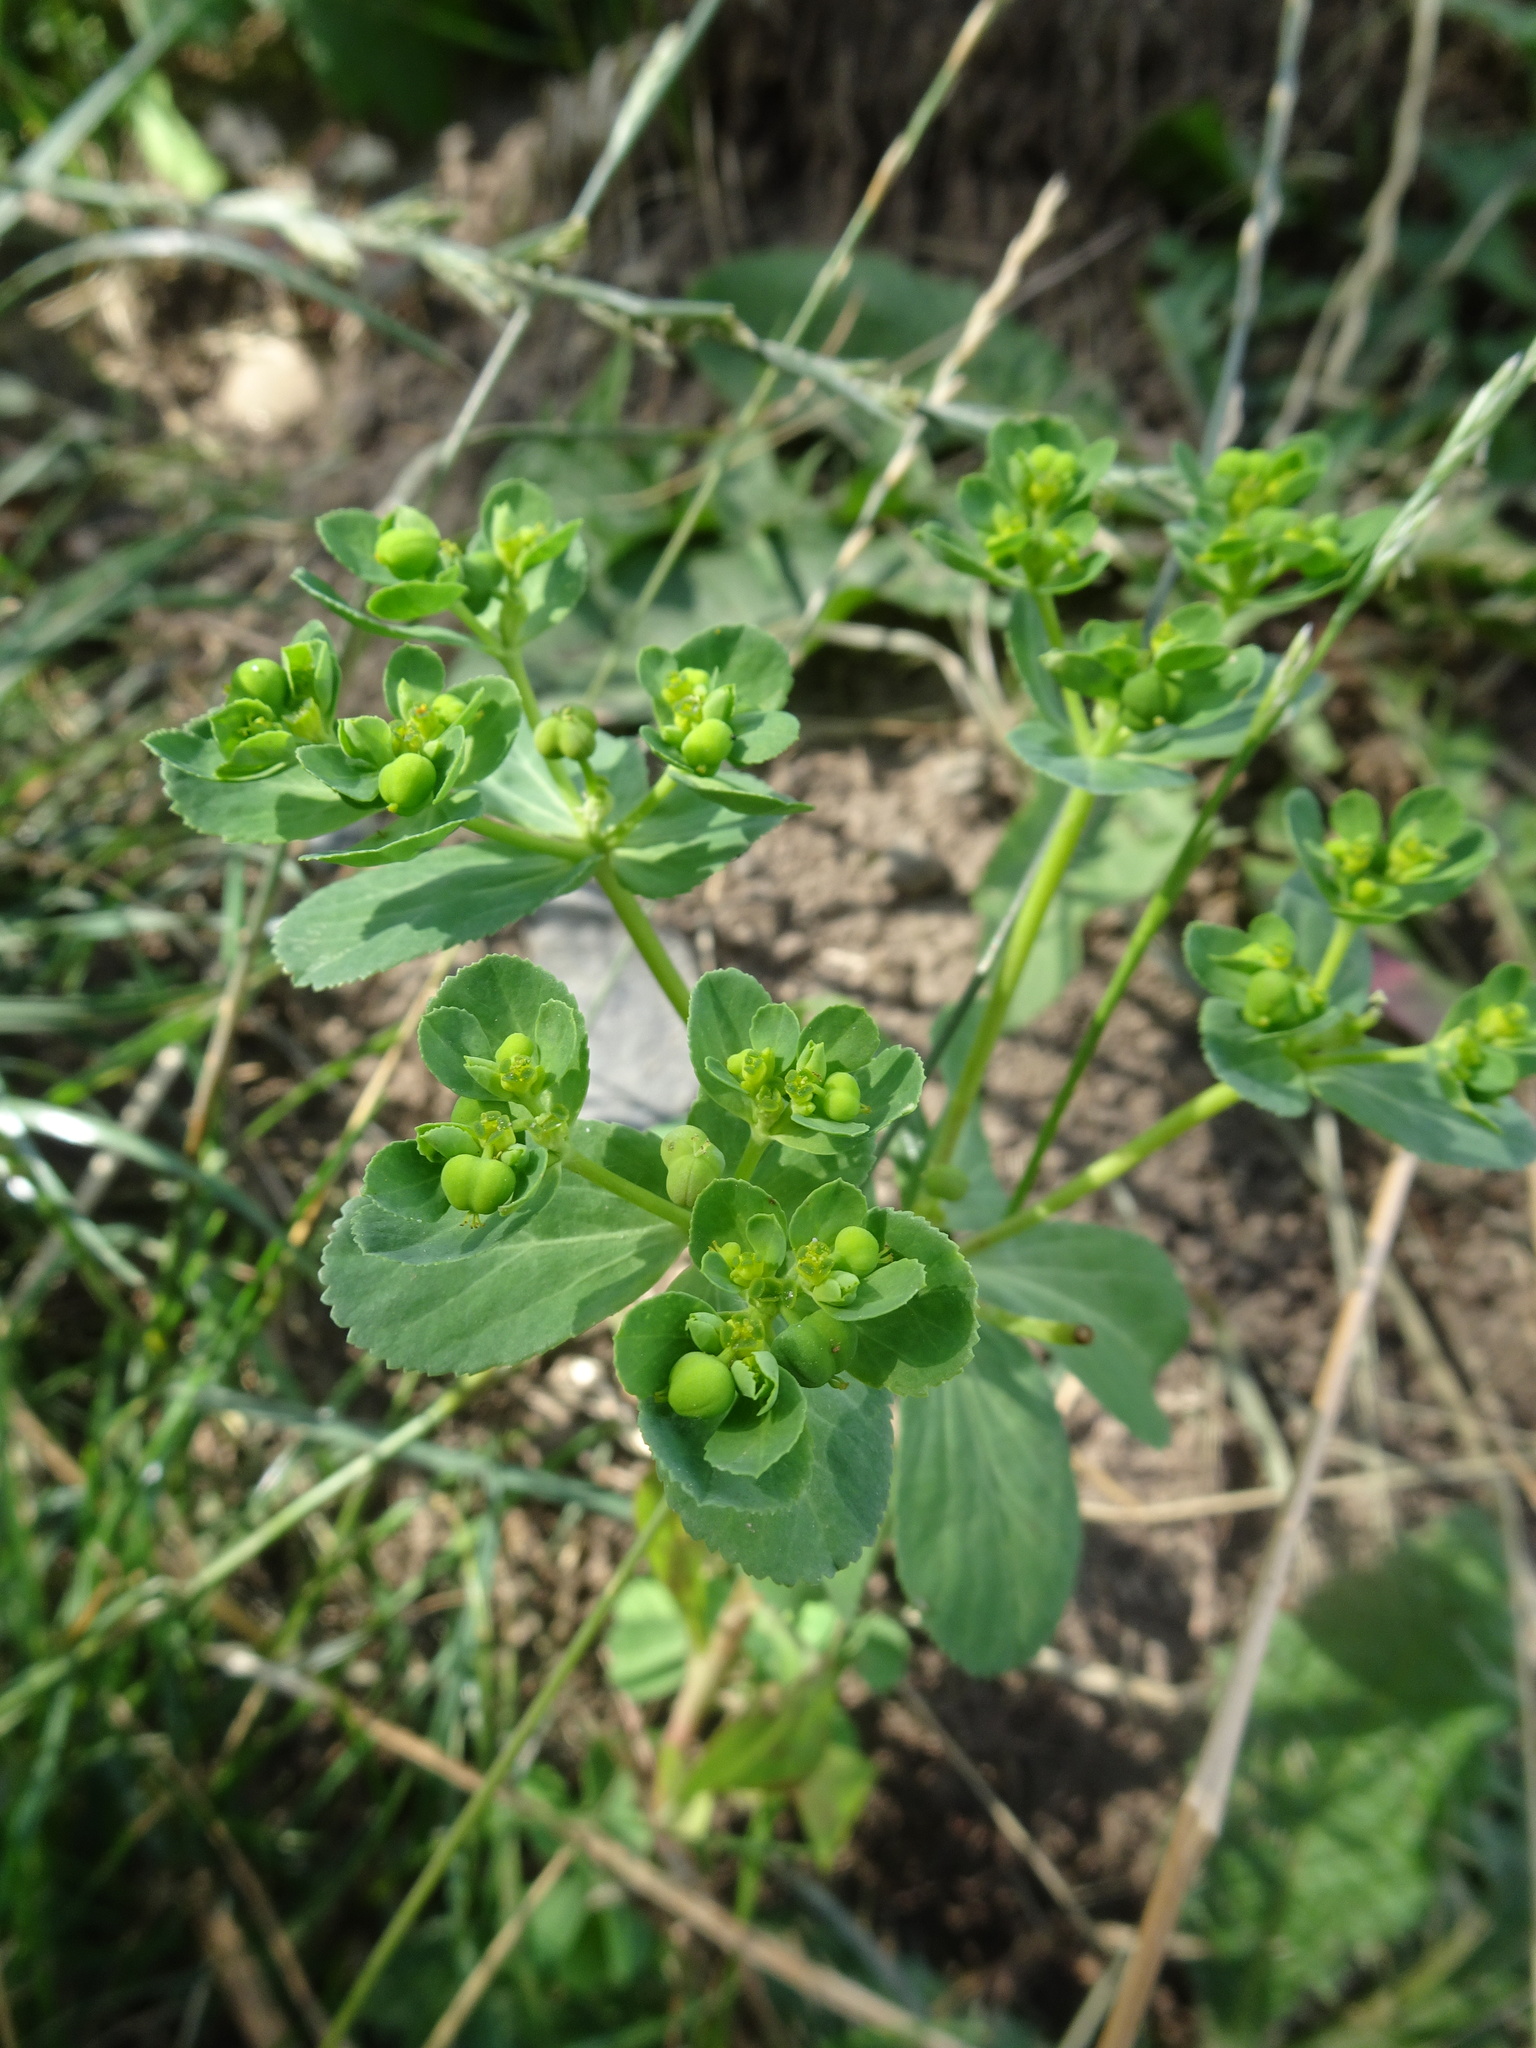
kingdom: Plantae
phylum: Tracheophyta
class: Magnoliopsida
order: Malpighiales
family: Euphorbiaceae
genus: Euphorbia
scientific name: Euphorbia helioscopia
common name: Sun spurge
